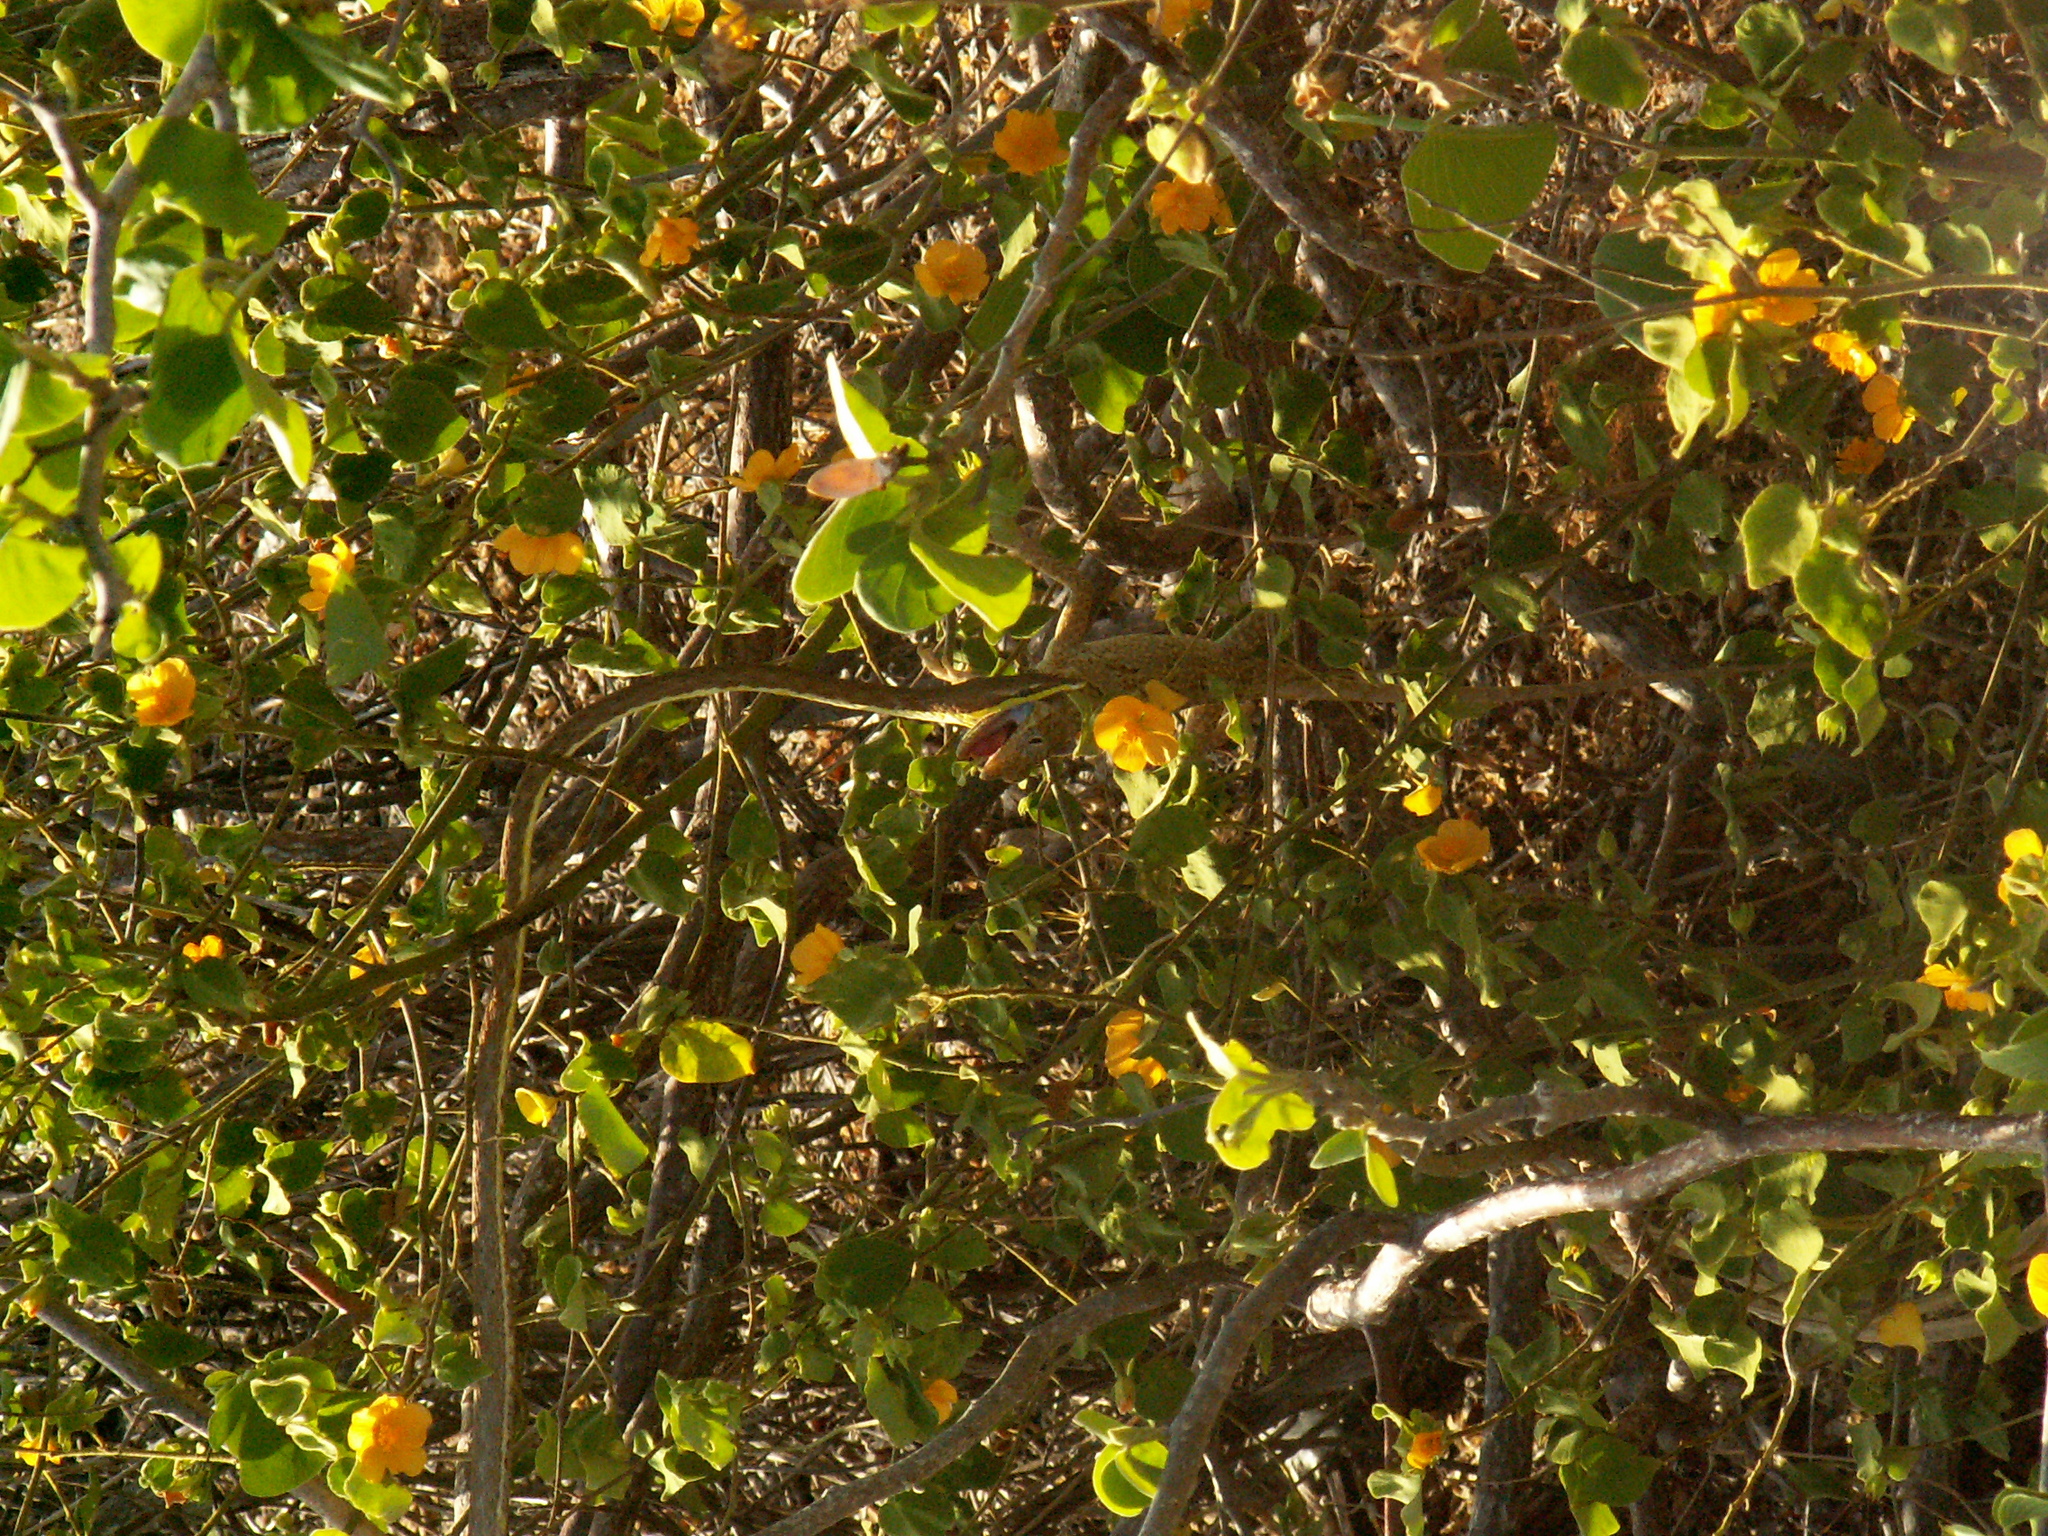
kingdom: Animalia
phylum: Chordata
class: Squamata
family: Colubridae
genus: Oxybelis
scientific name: Oxybelis rutherfordi
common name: Rutherford’s vine snake
